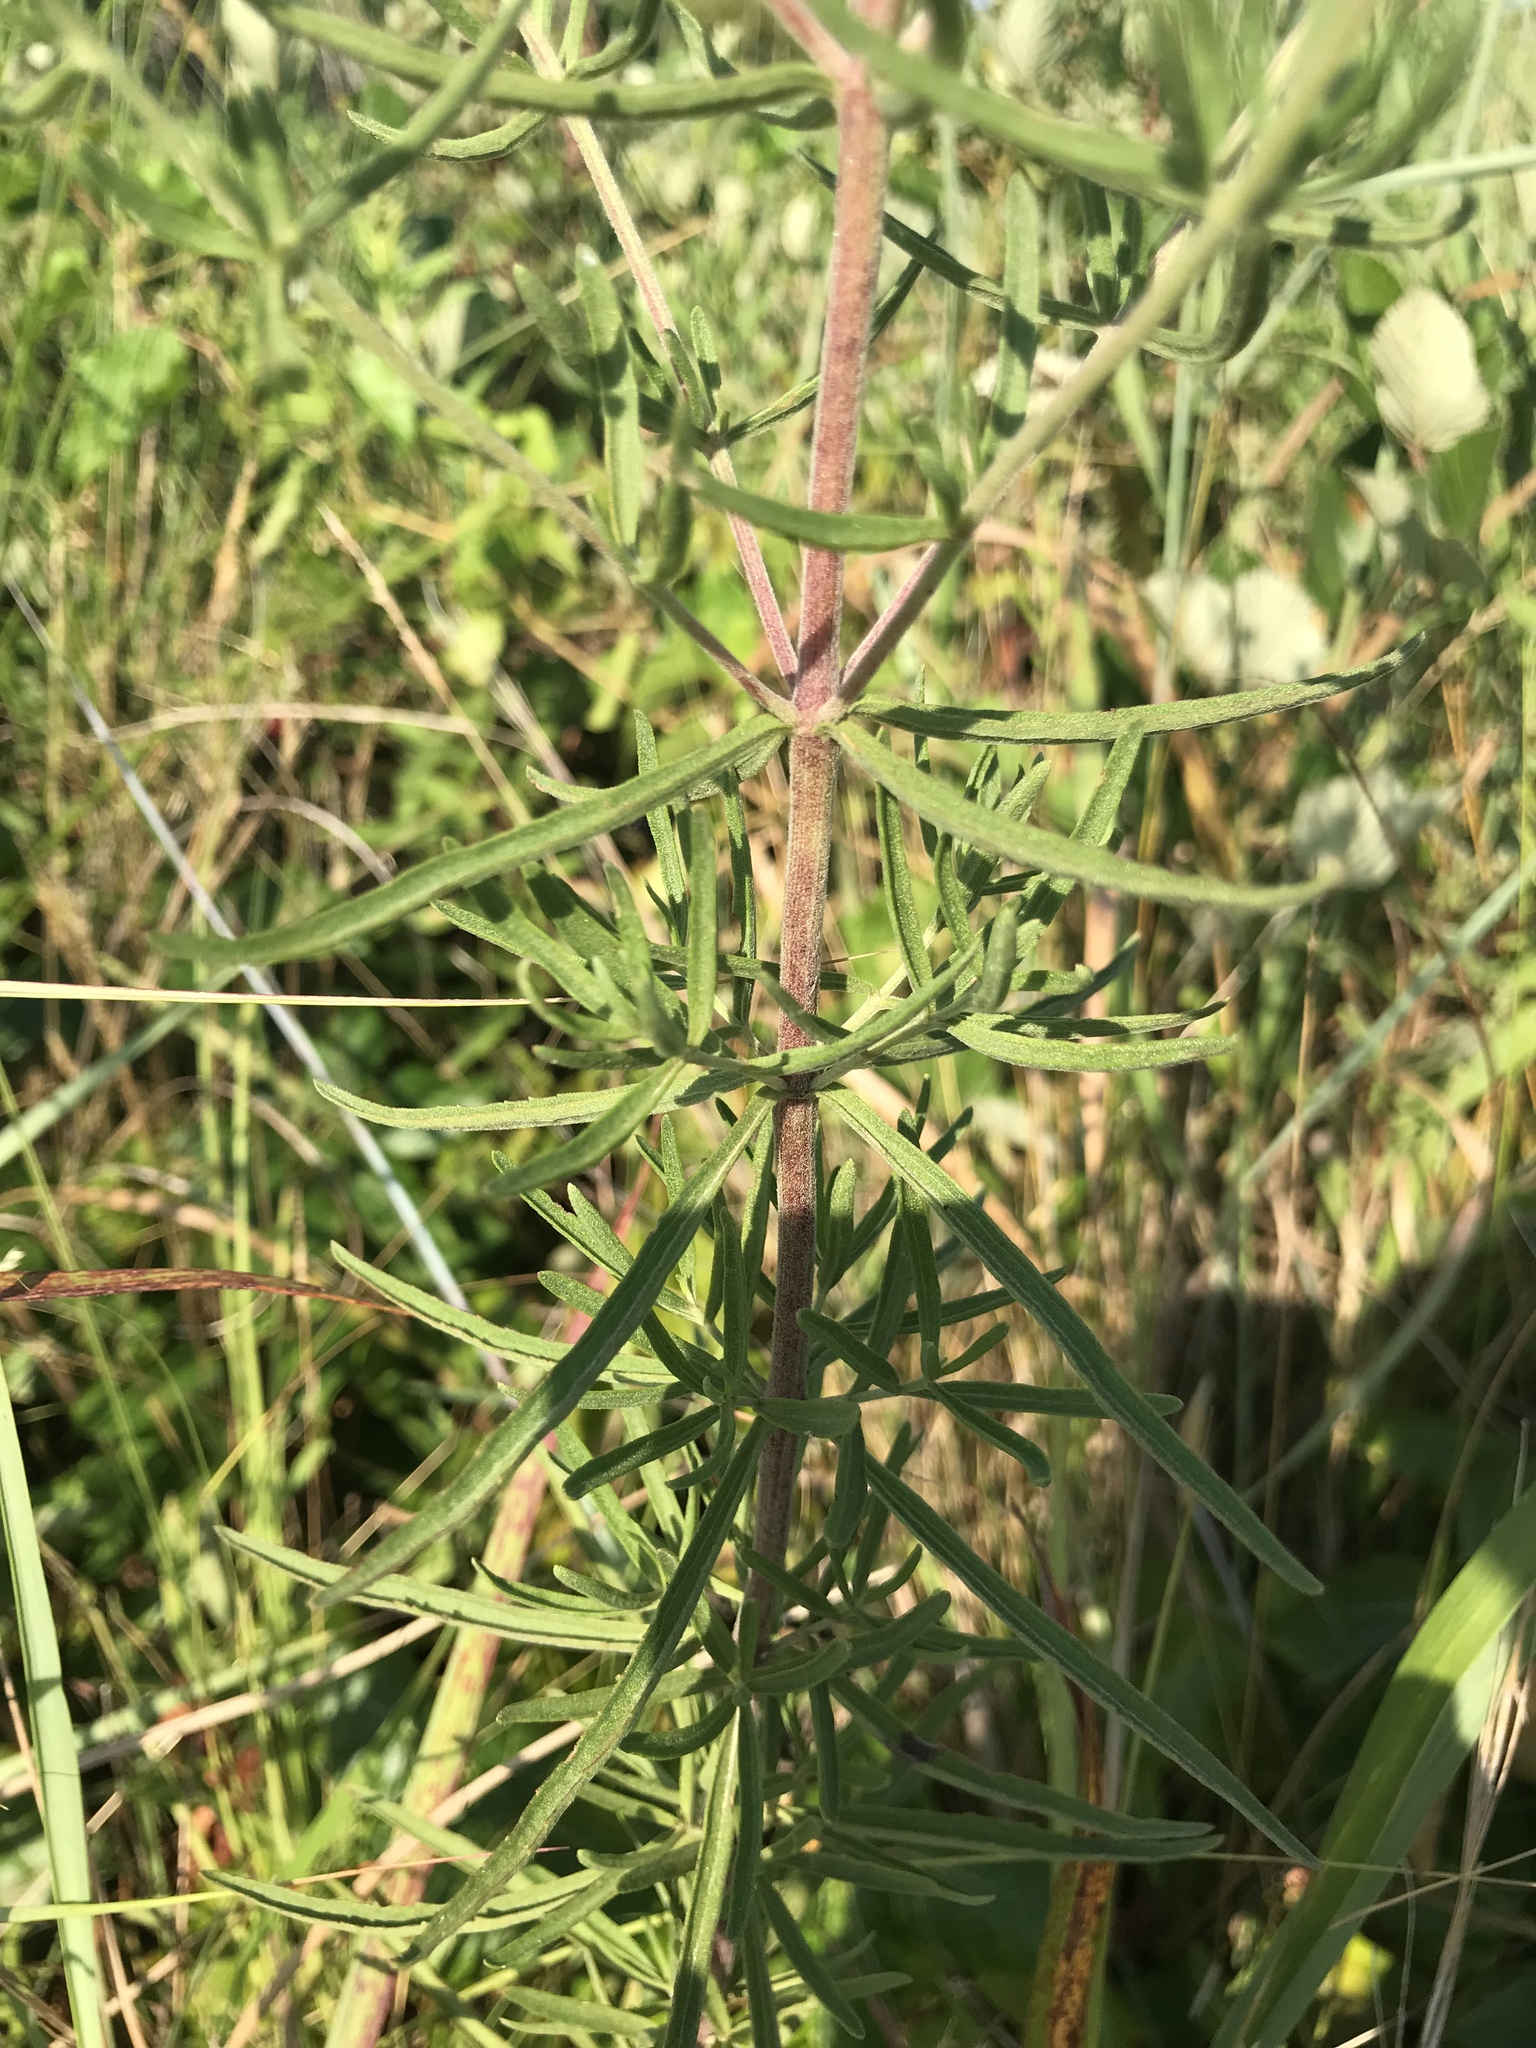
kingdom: Plantae
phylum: Tracheophyta
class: Magnoliopsida
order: Asterales
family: Asteraceae
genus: Eupatorium
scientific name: Eupatorium hyssopifolium
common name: Hyssop-leaf thoroughwort
